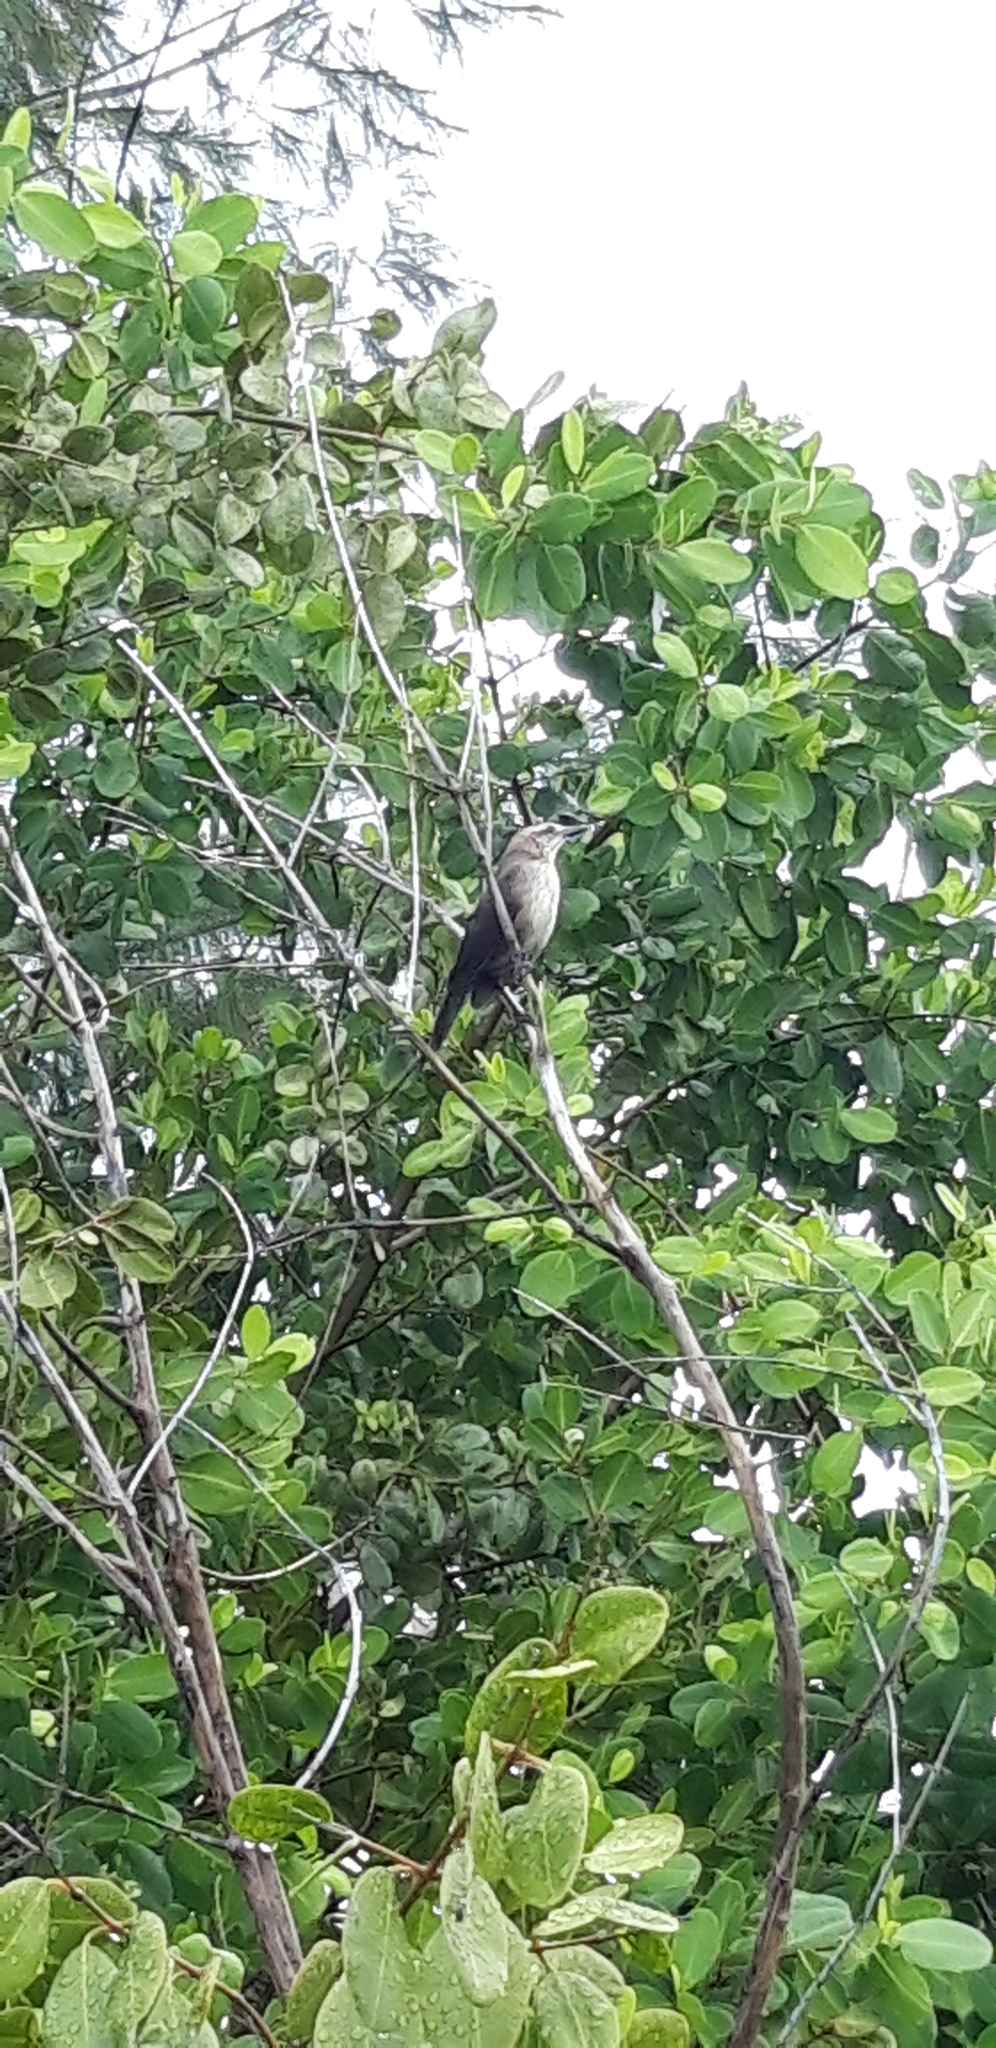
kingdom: Animalia
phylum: Chordata
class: Aves
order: Passeriformes
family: Icteridae
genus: Quiscalus
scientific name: Quiscalus lugubris
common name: Carib grackle
